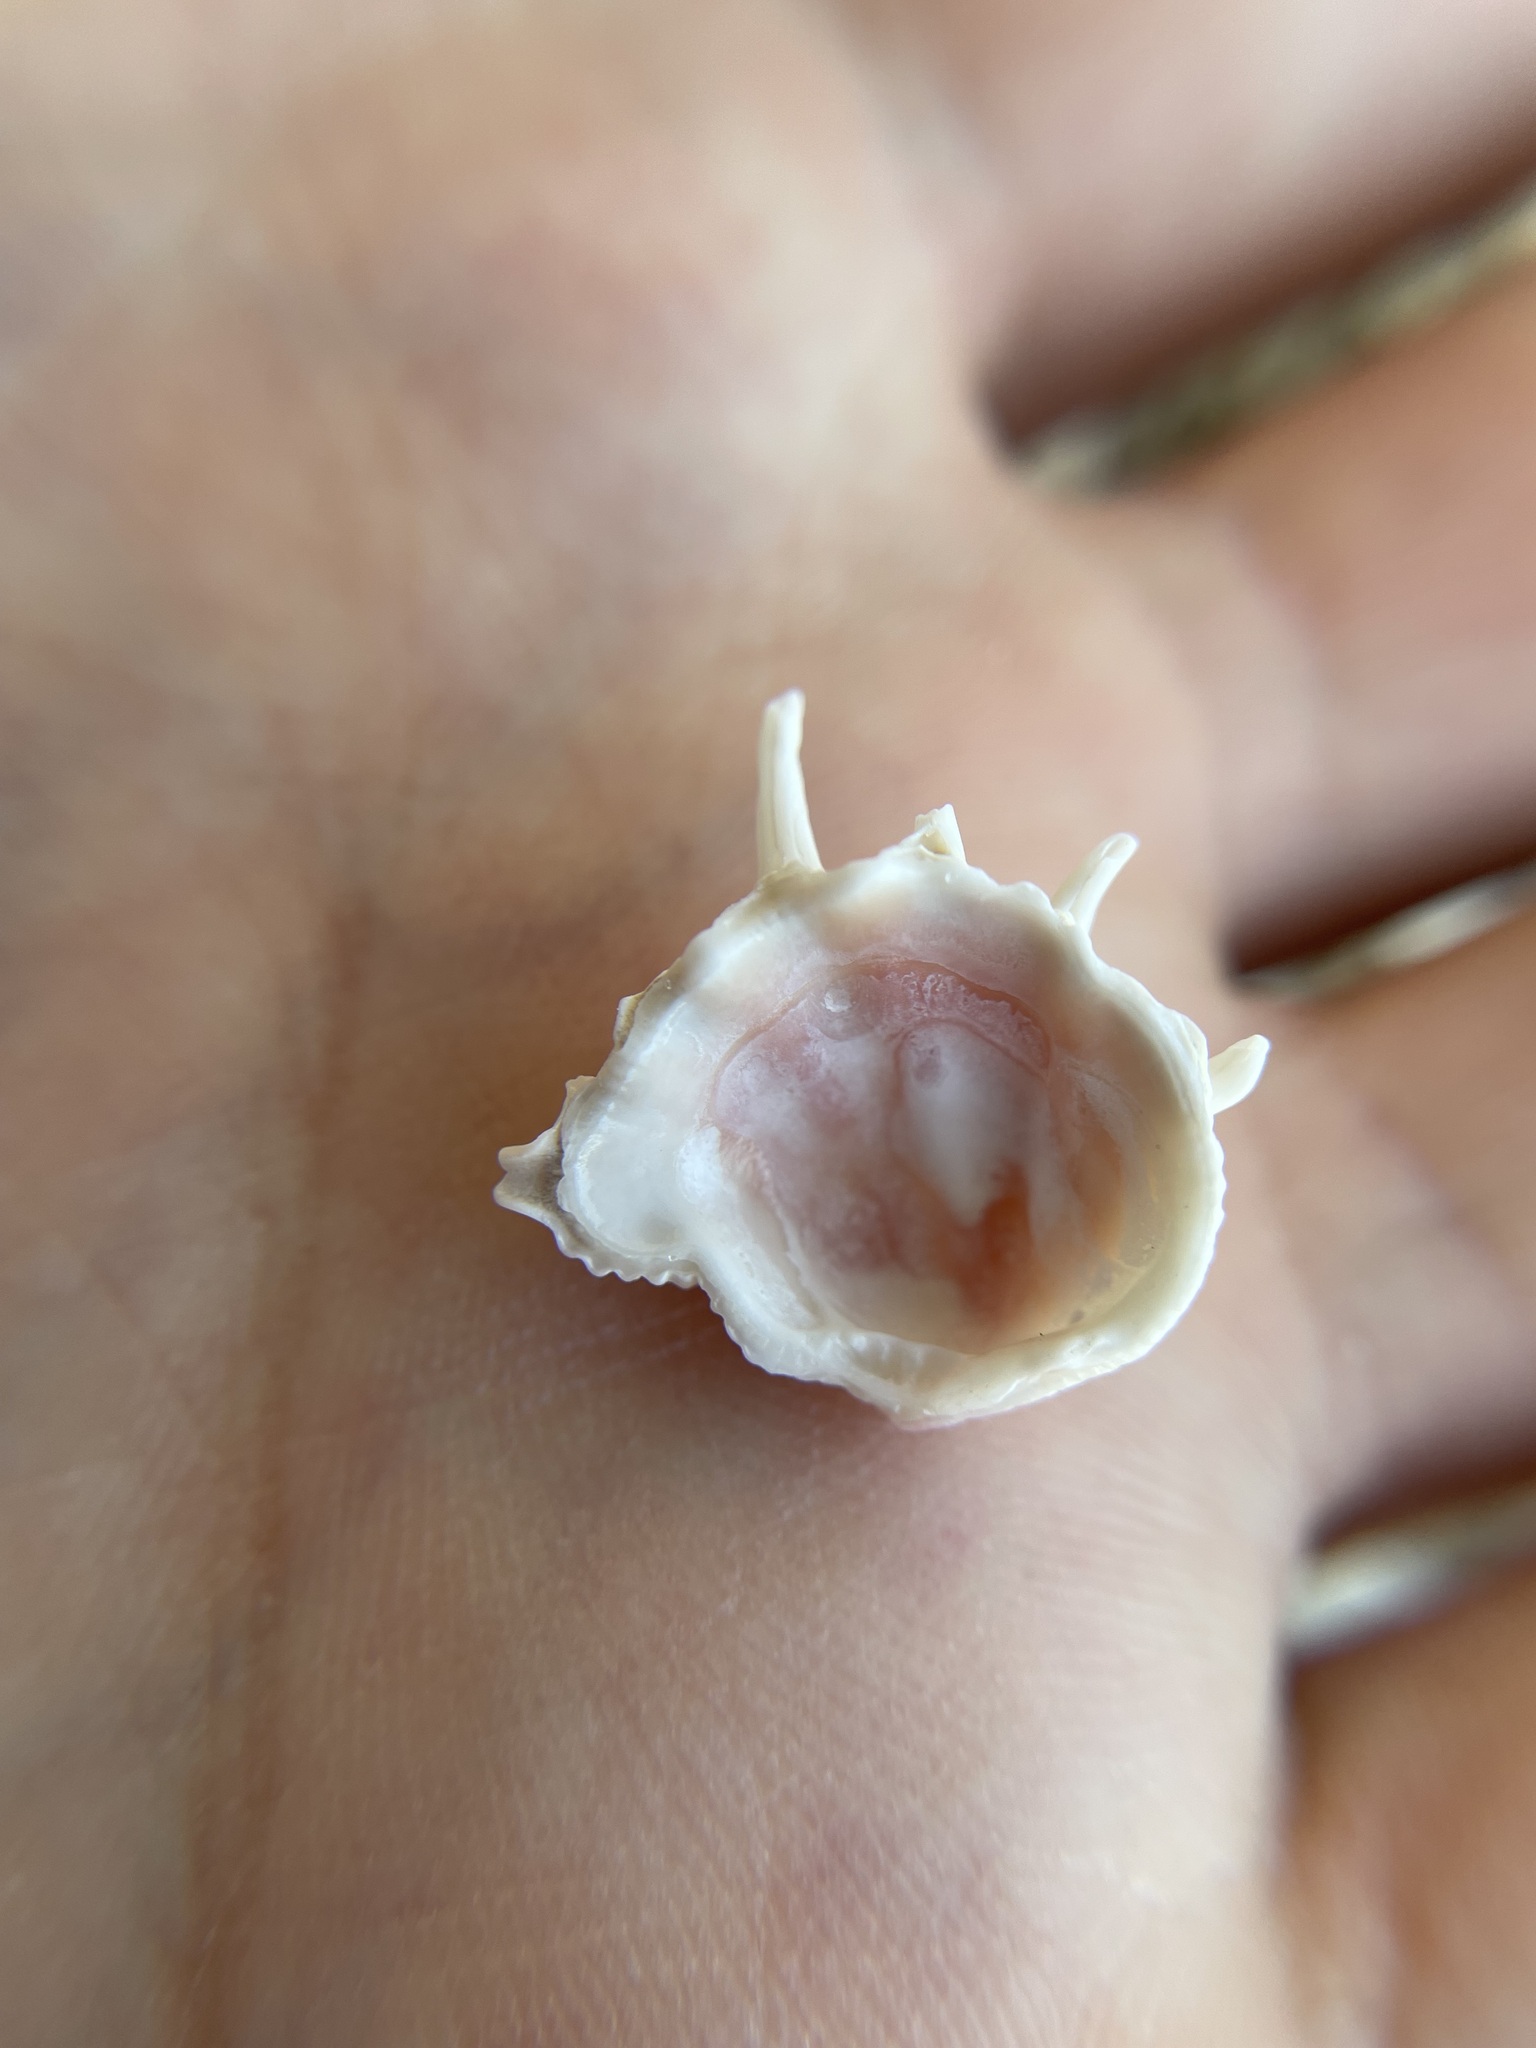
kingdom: Animalia
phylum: Mollusca
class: Bivalvia
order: Venerida
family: Chamidae
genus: Arcinella
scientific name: Arcinella cornuta
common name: Florida spiny jewel box
